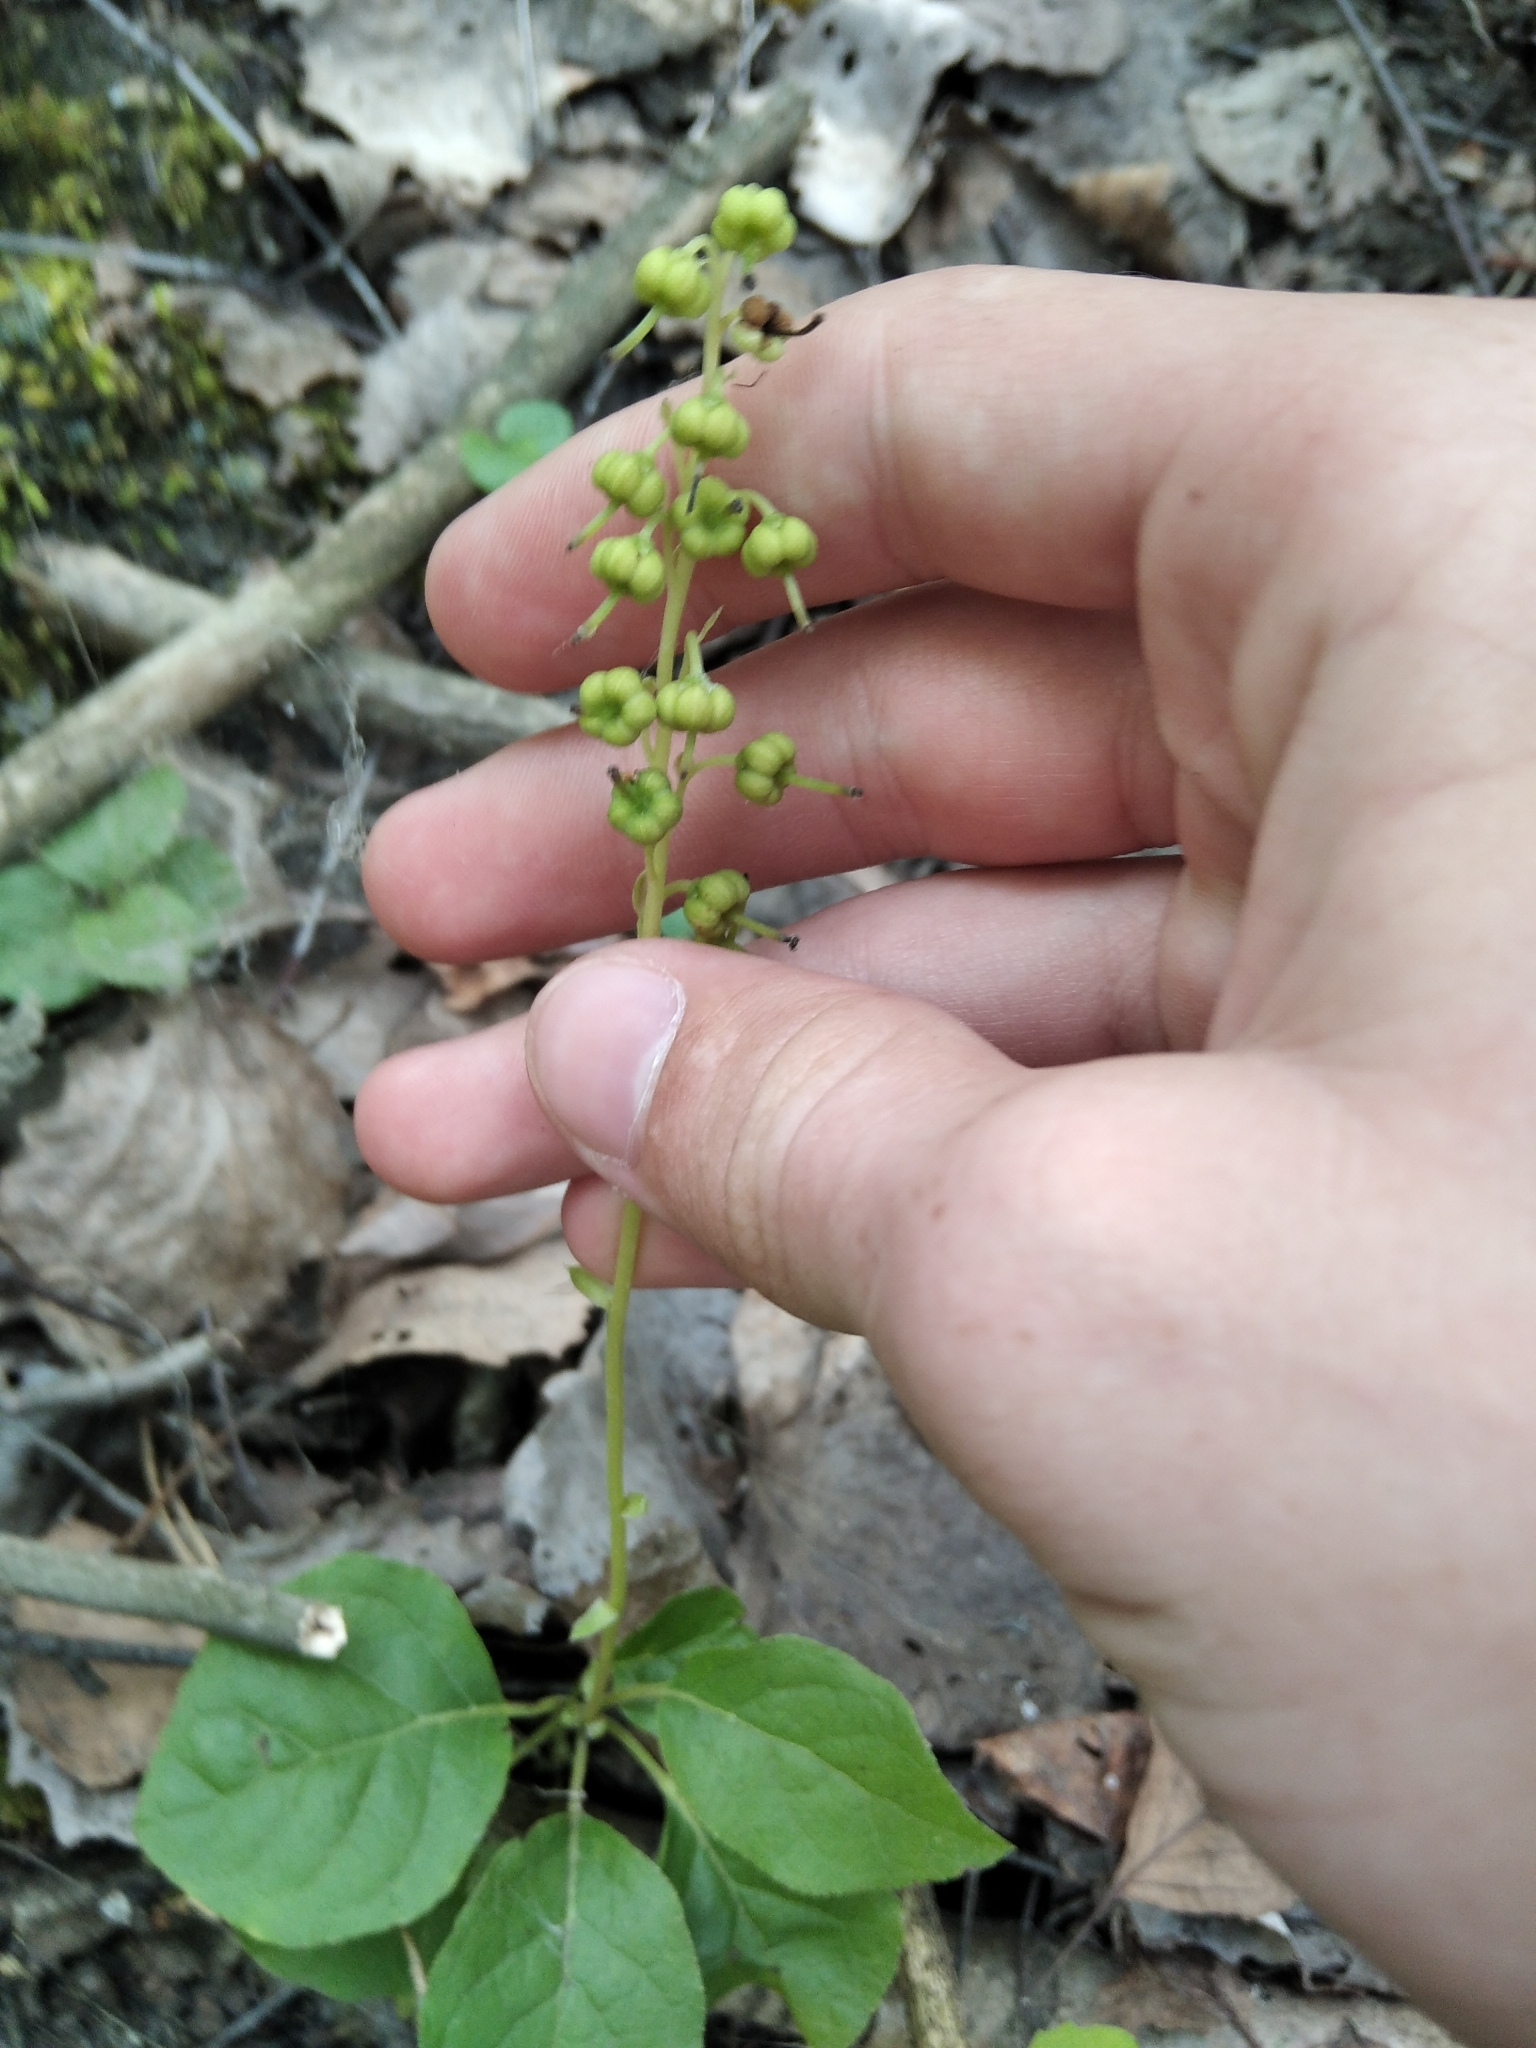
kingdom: Plantae
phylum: Tracheophyta
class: Magnoliopsida
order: Ericales
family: Ericaceae
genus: Orthilia
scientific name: Orthilia secunda
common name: One-sided orthilia
